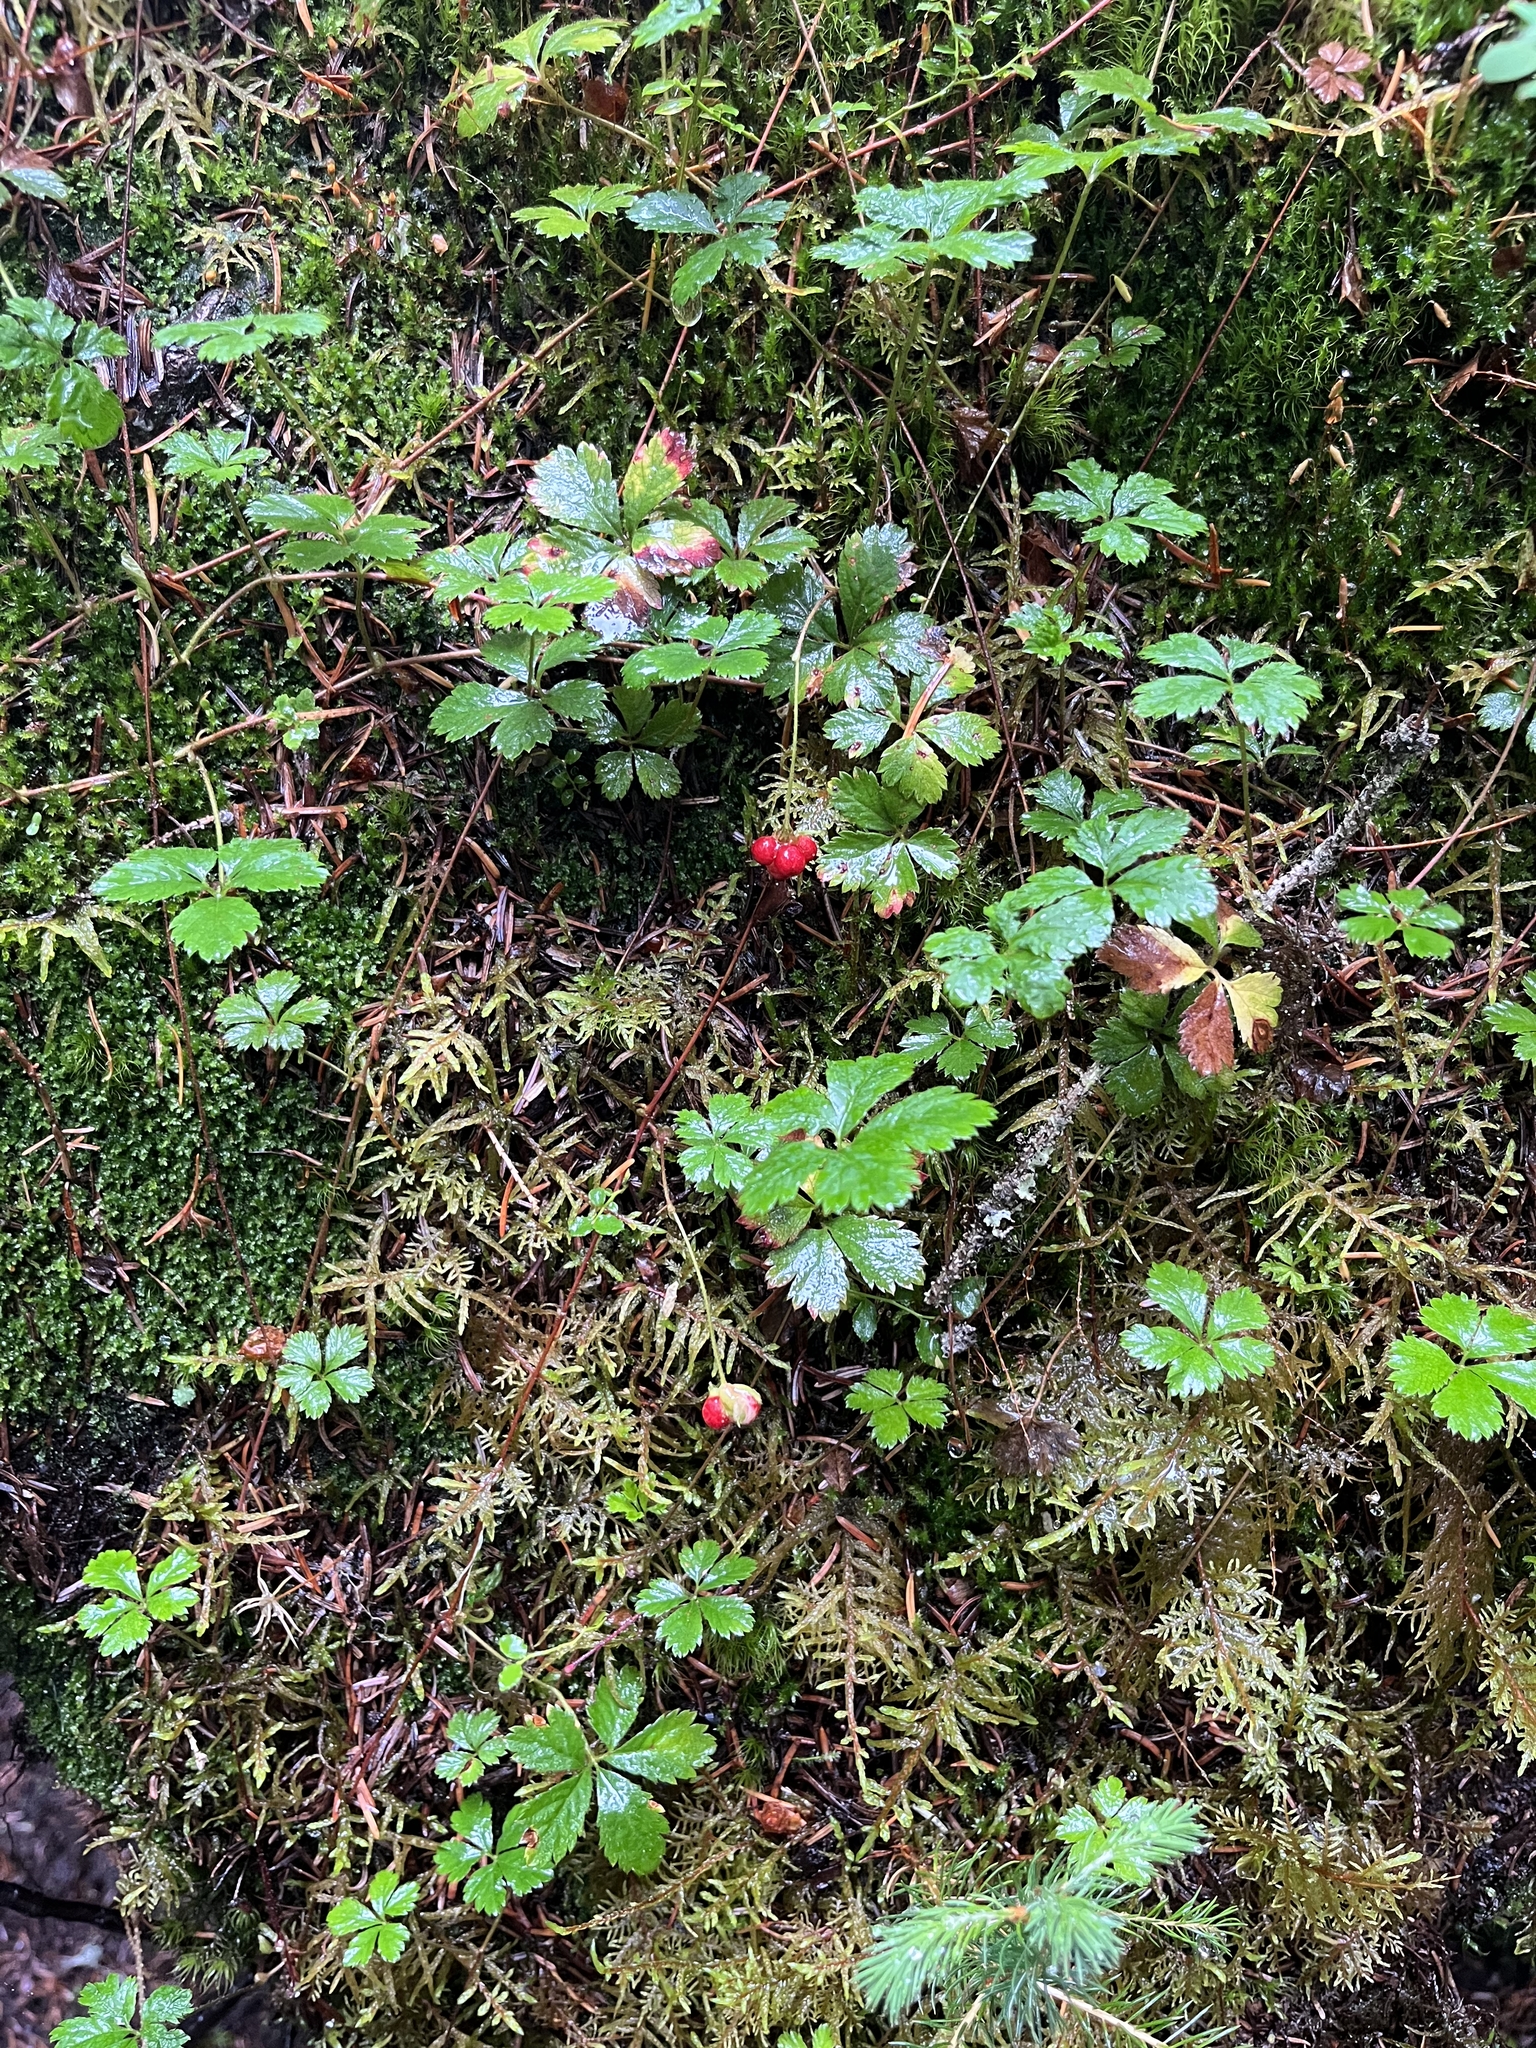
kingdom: Plantae
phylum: Tracheophyta
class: Magnoliopsida
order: Rosales
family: Rosaceae
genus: Rubus
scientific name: Rubus pedatus
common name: Creeping raspberry
